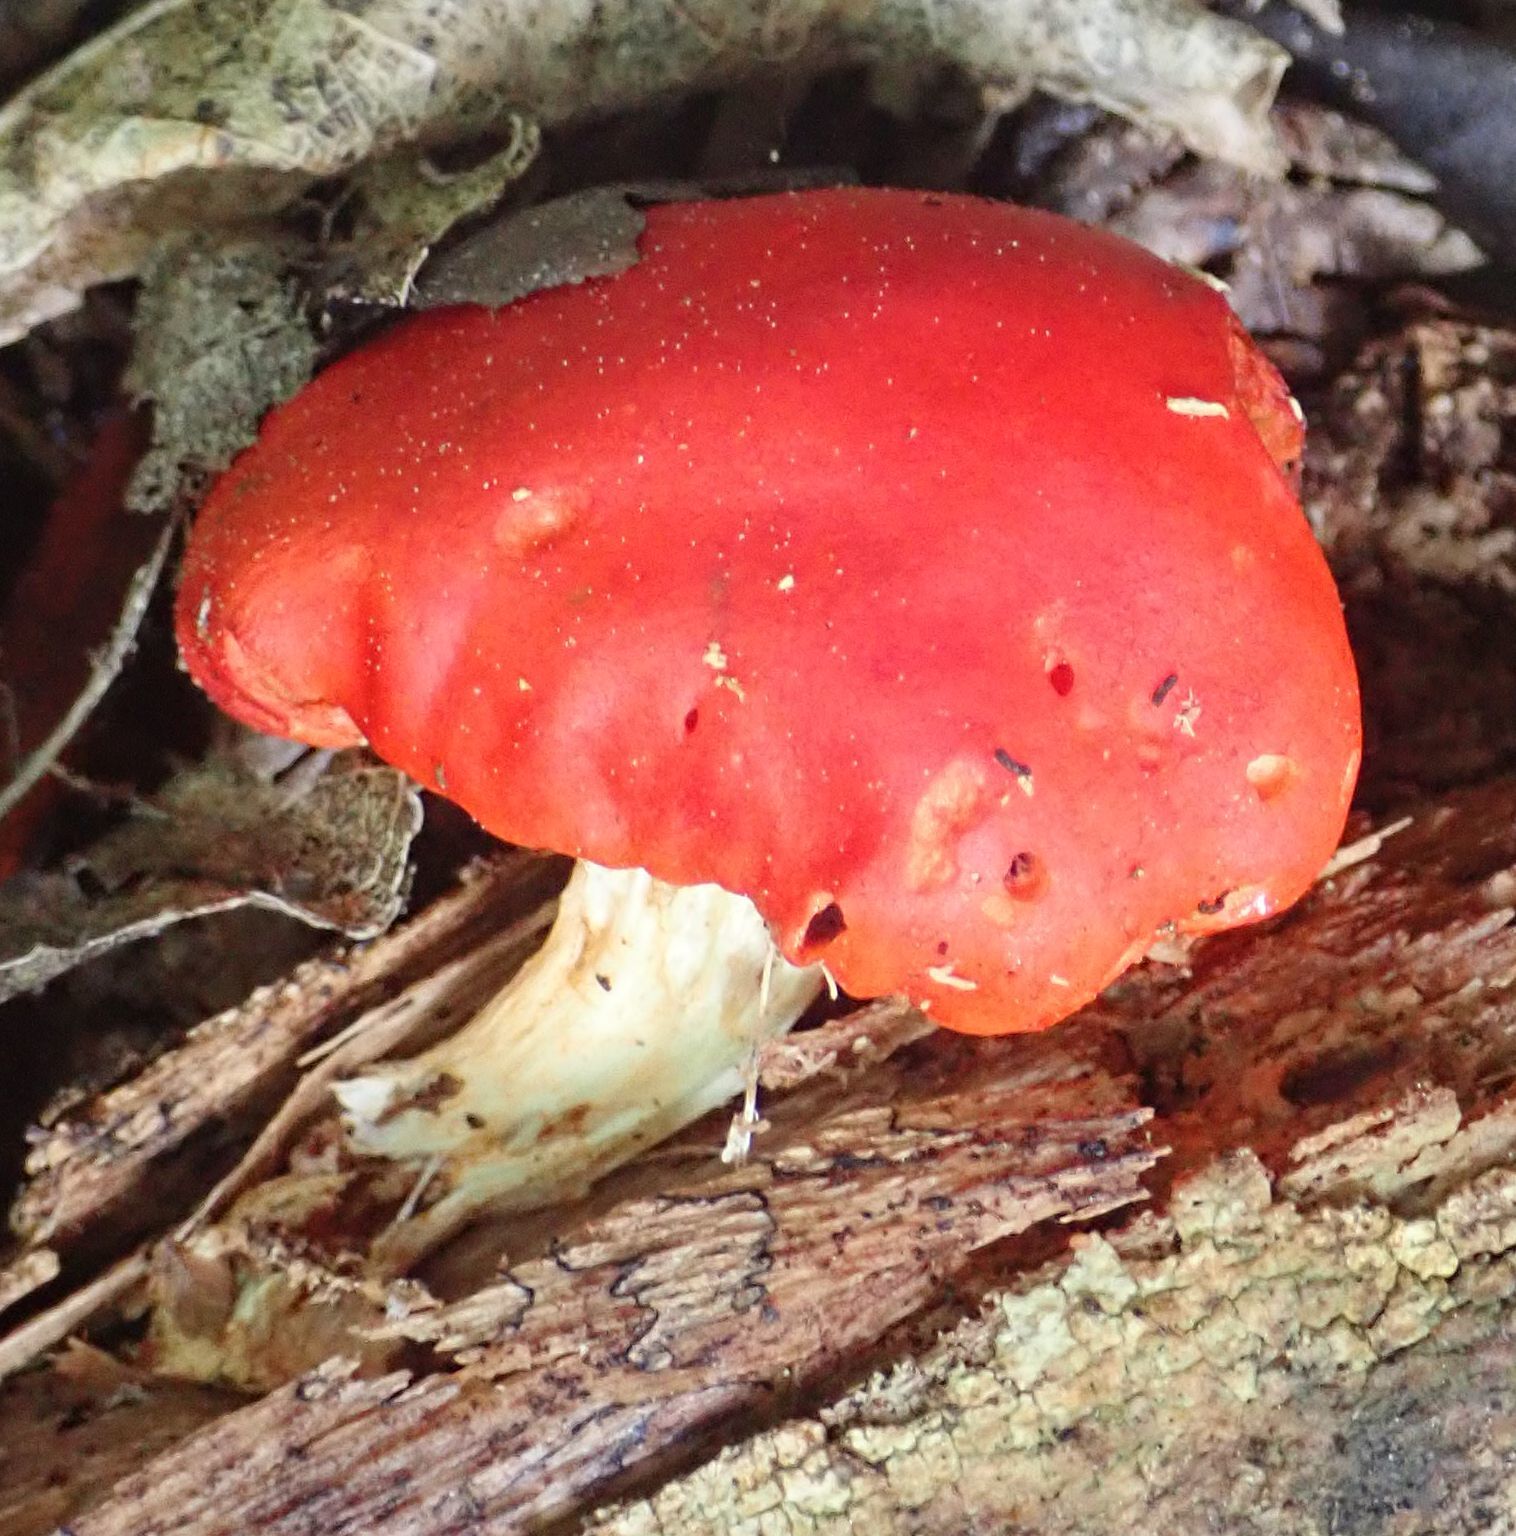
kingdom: Fungi
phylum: Basidiomycota
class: Agaricomycetes
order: Agaricales
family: Strophariaceae
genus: Leratiomyces
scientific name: Leratiomyces erythrocephalus
